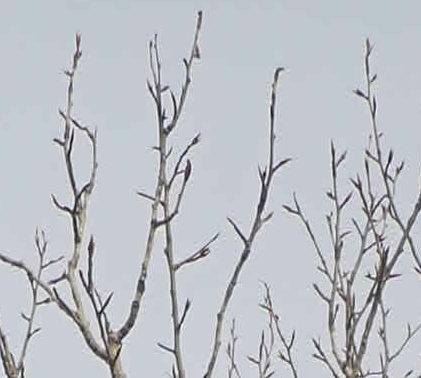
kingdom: Plantae
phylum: Tracheophyta
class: Magnoliopsida
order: Malpighiales
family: Salicaceae
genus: Populus
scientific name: Populus balsamifera
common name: Balsam poplar
